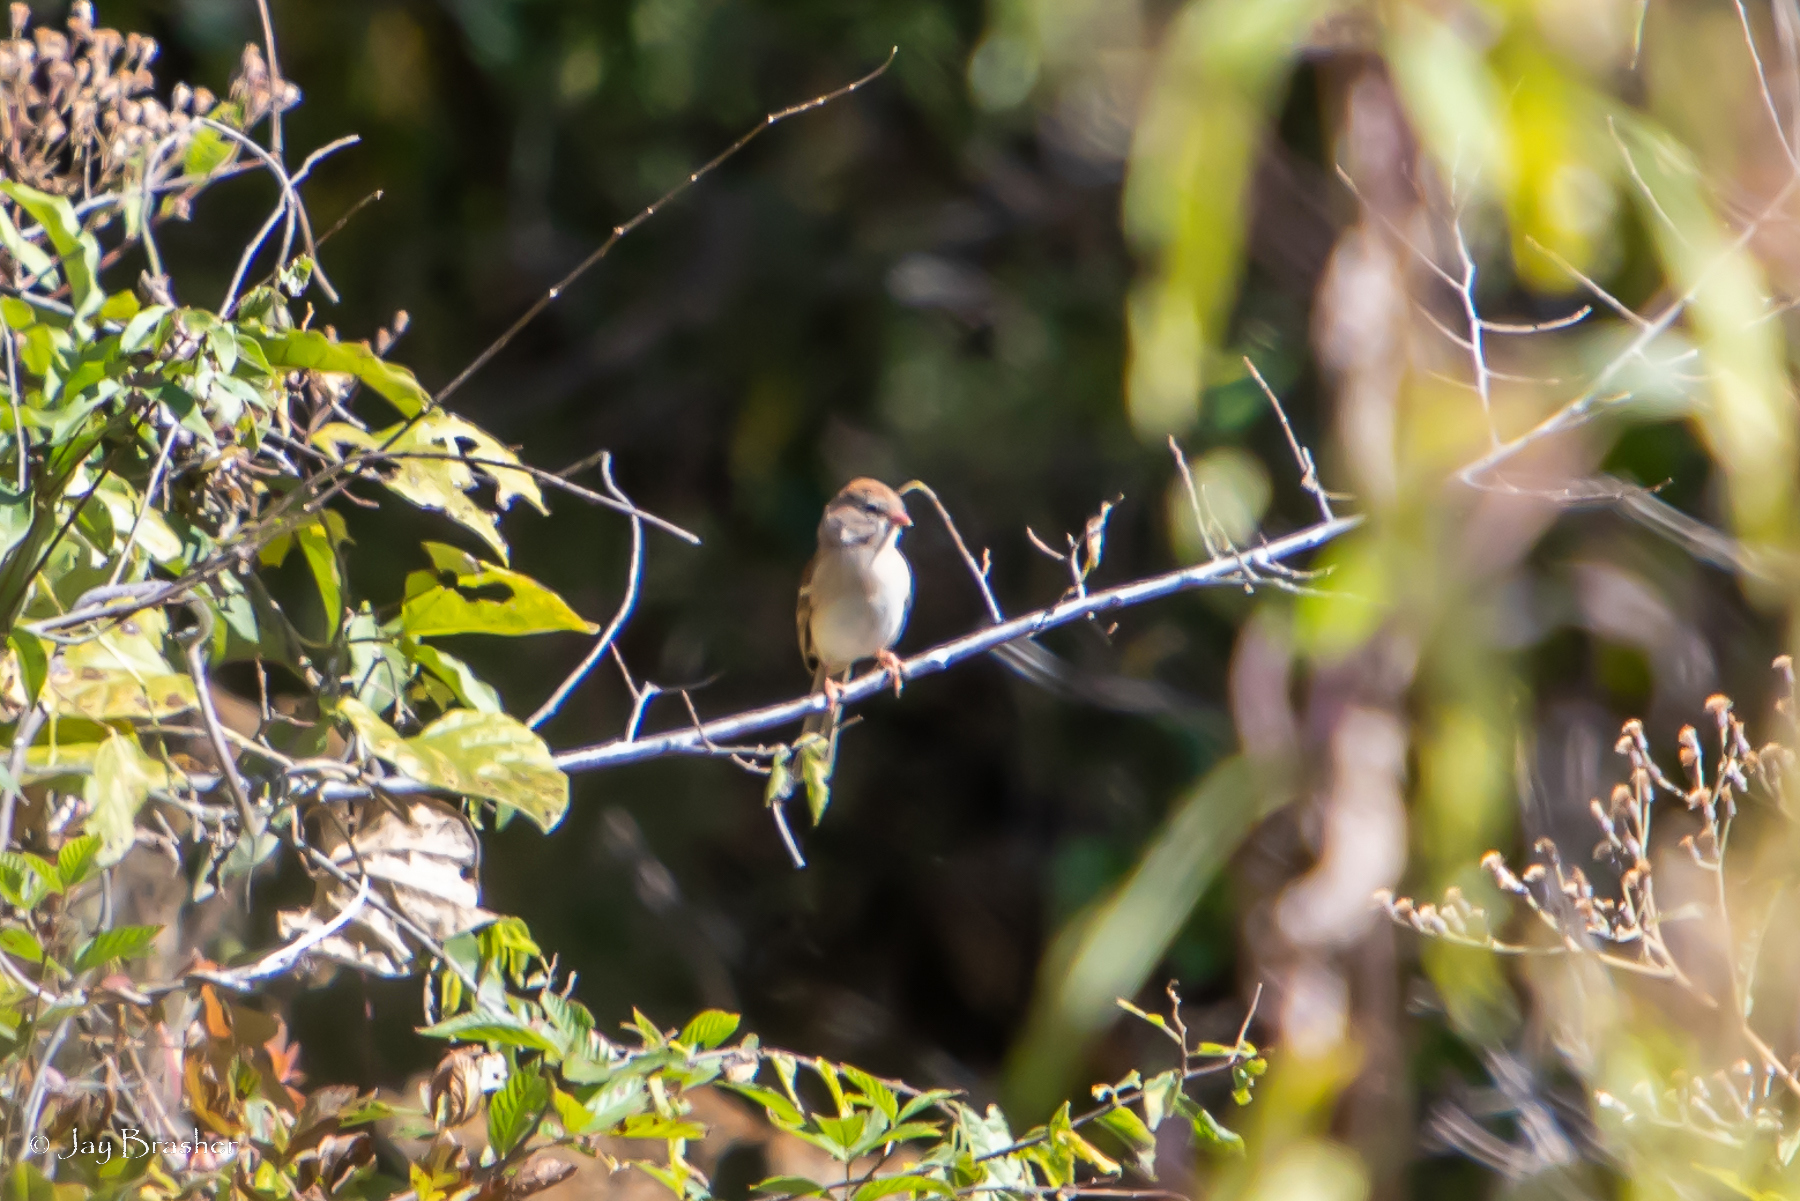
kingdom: Animalia
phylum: Chordata
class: Aves
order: Passeriformes
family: Passerellidae
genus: Spizella
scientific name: Spizella pusilla
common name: Field sparrow
